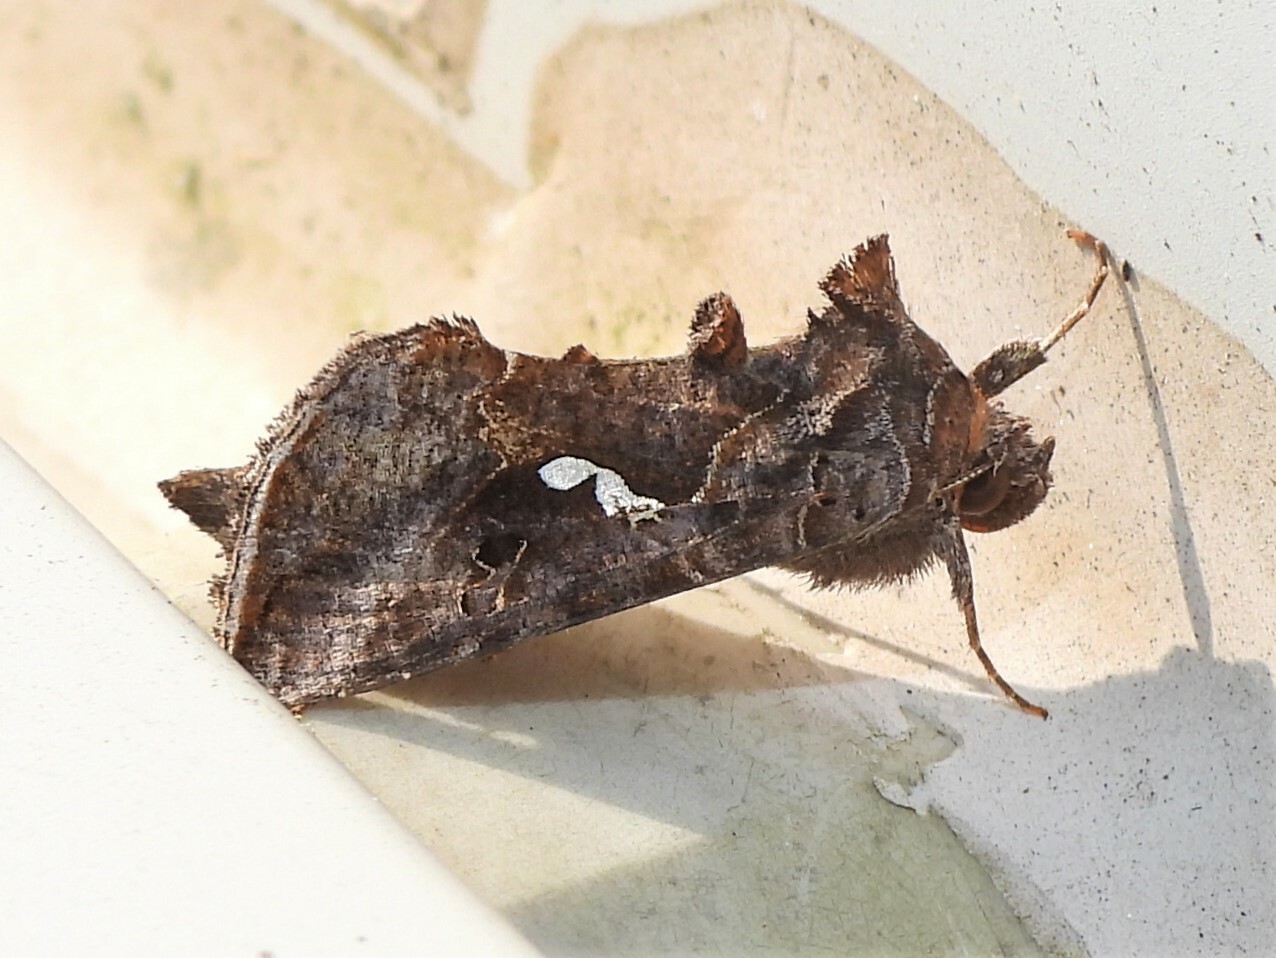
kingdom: Animalia
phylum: Arthropoda
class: Insecta
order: Lepidoptera
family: Noctuidae
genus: Autographa
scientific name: Autographa precationis
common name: Common looper moth
